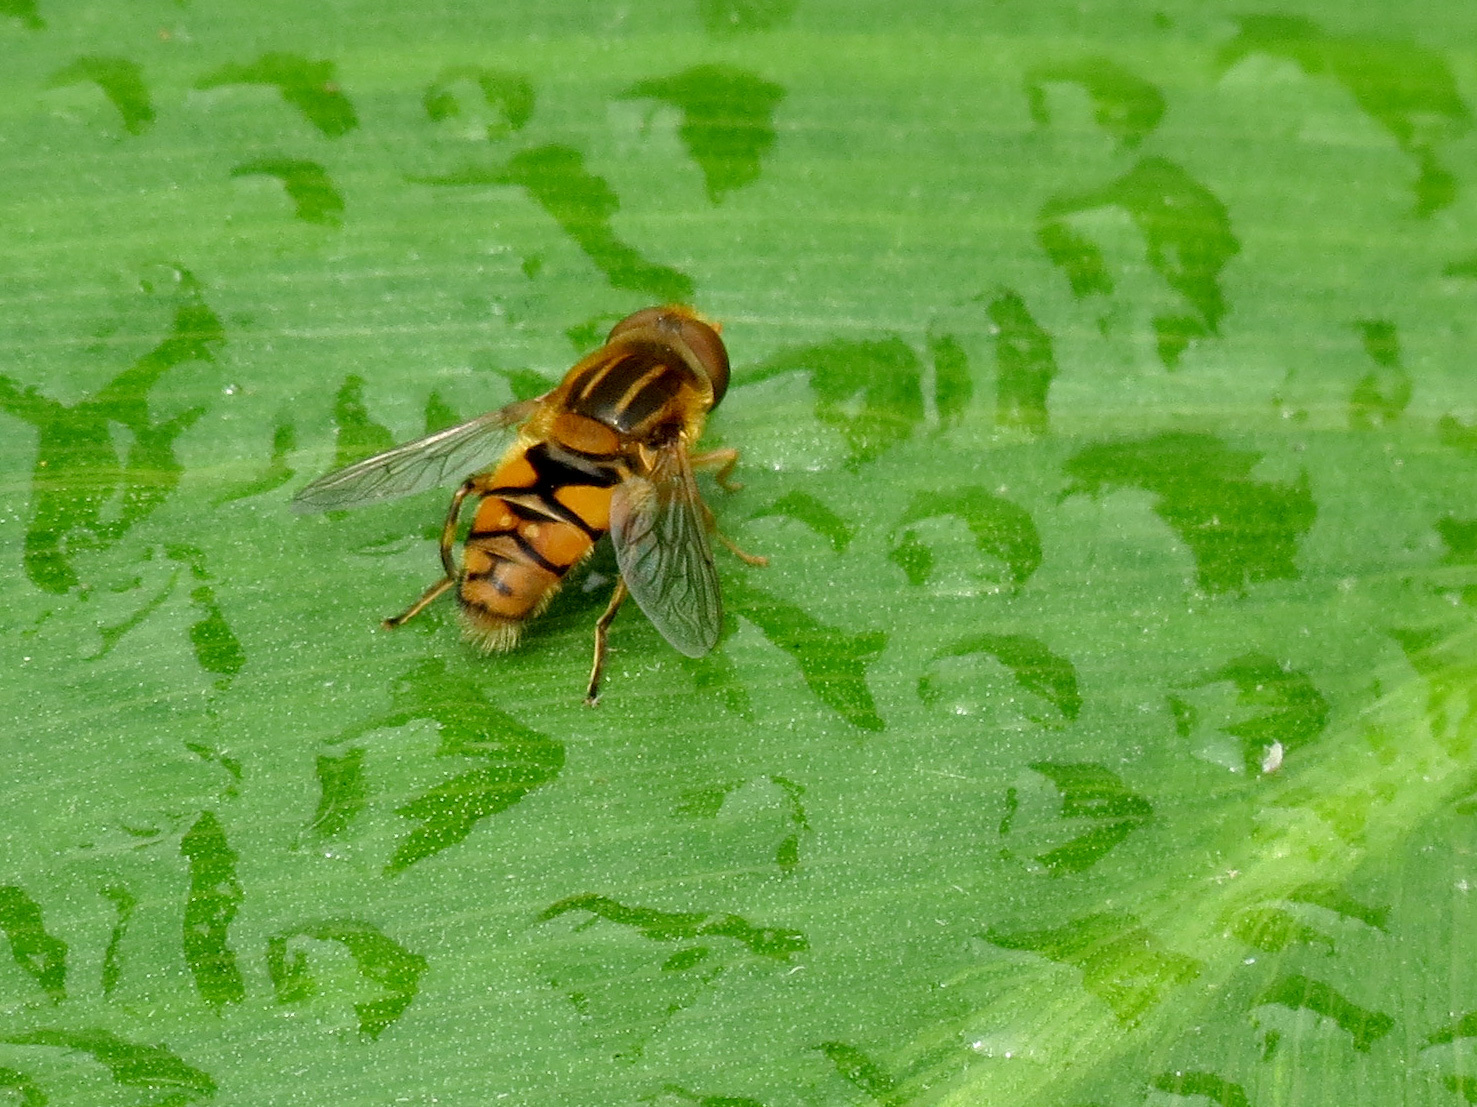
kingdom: Animalia
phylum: Arthropoda
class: Insecta
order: Diptera
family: Syrphidae
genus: Parhelophilus
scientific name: Parhelophilus integer
